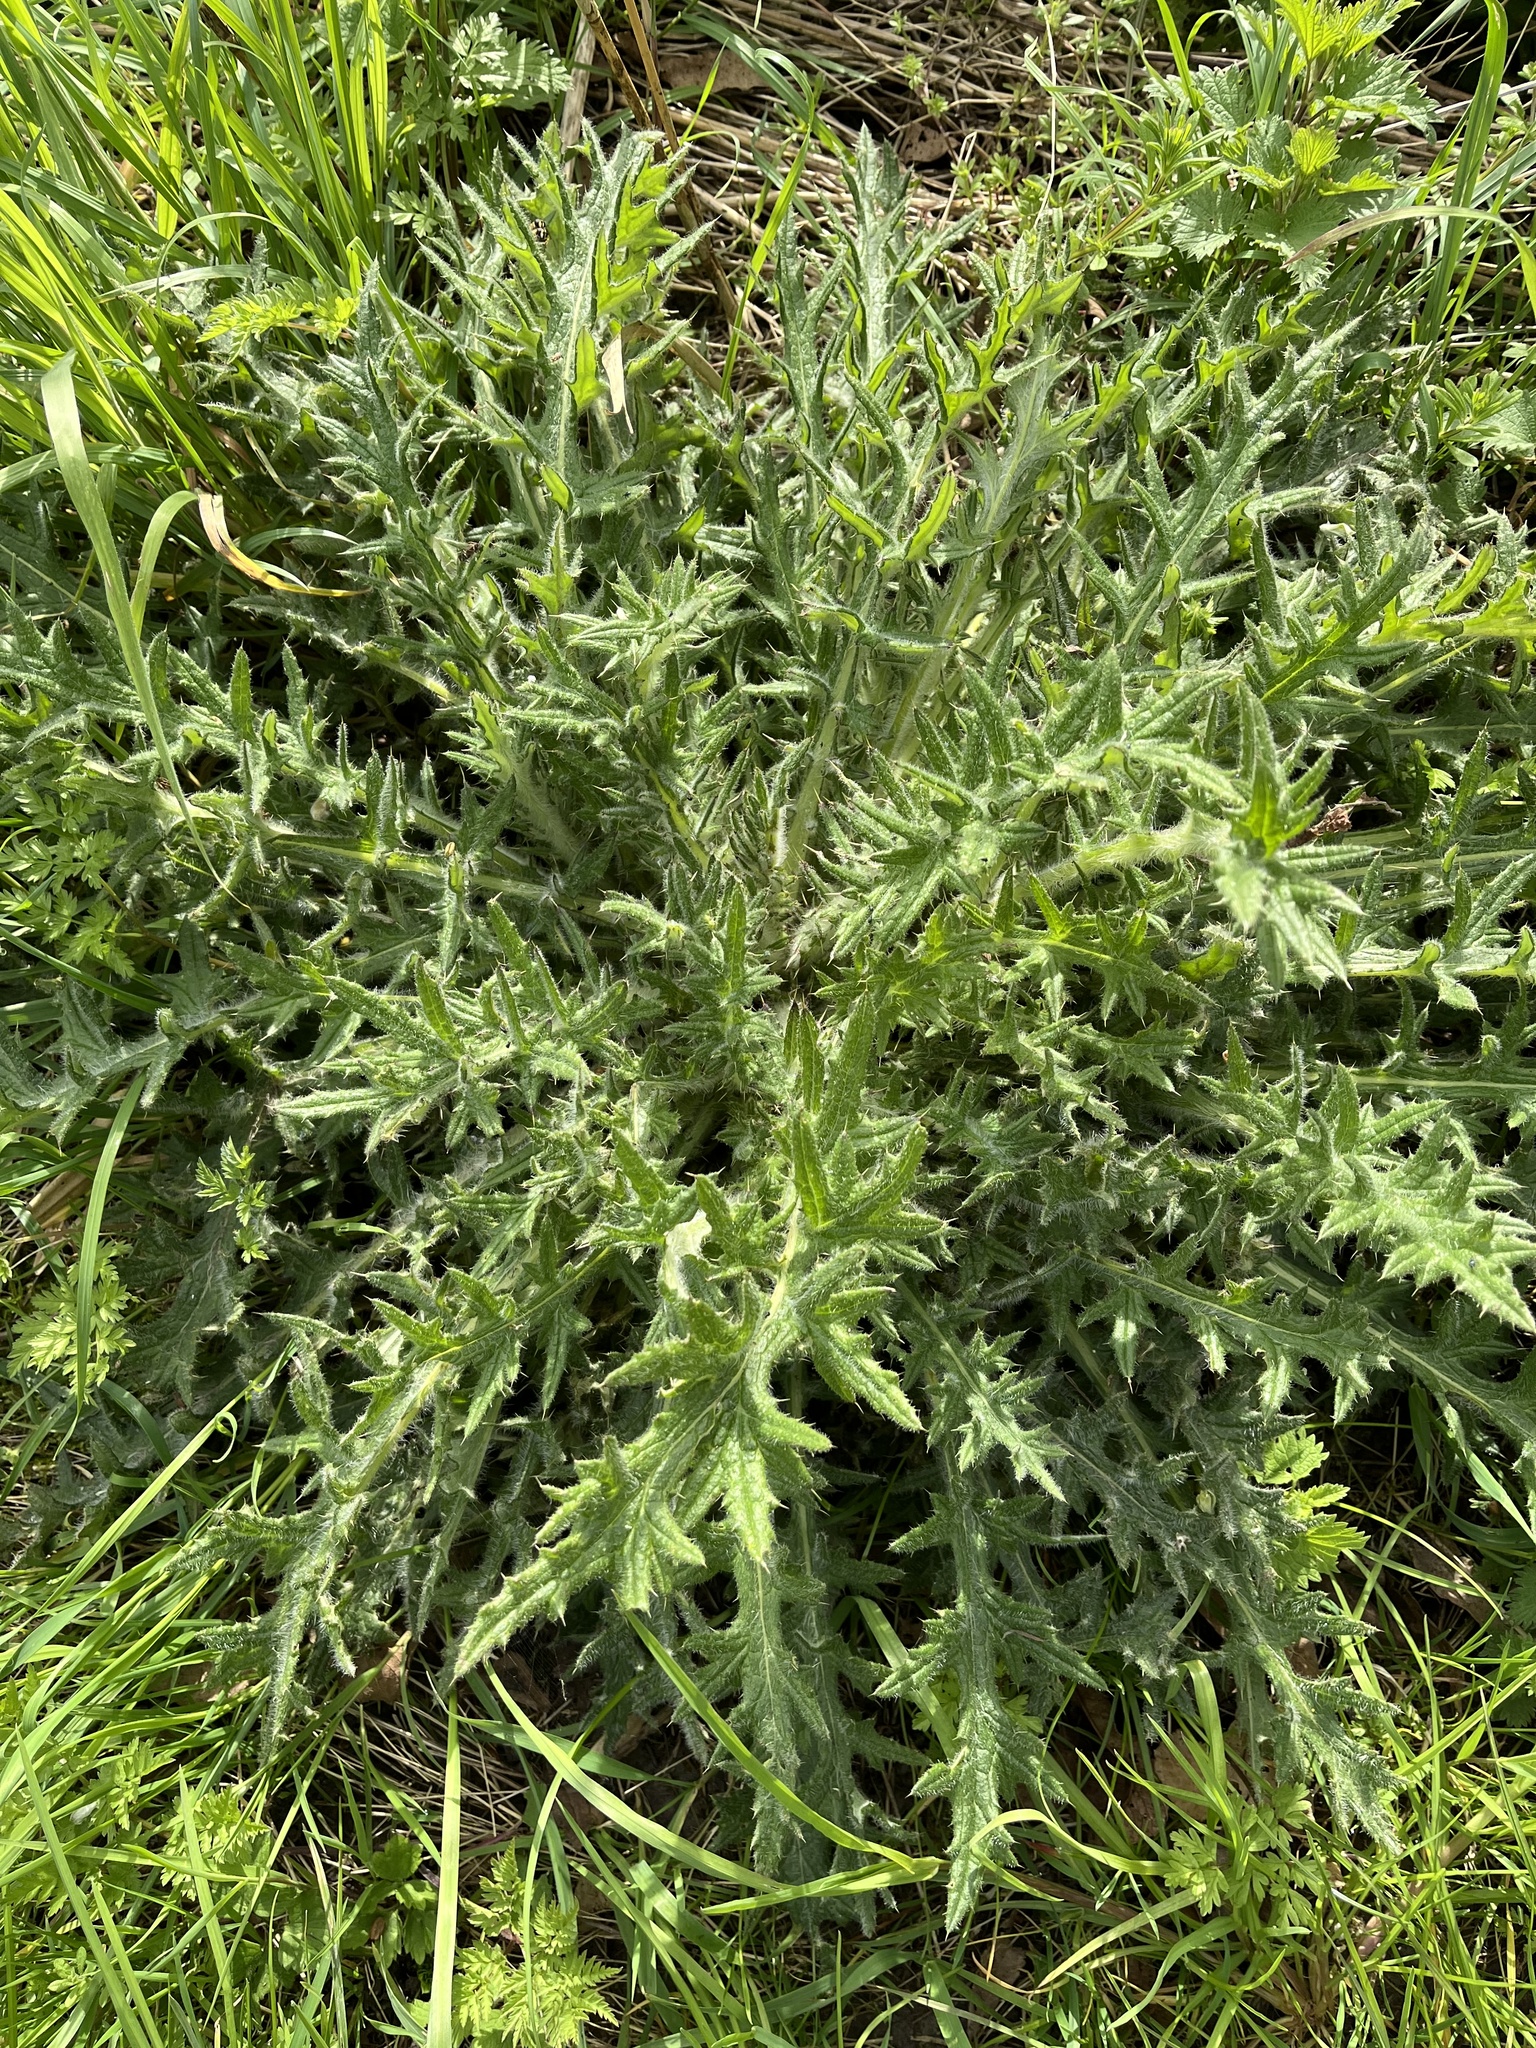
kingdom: Plantae
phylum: Tracheophyta
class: Magnoliopsida
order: Asterales
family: Asteraceae
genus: Cirsium
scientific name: Cirsium vulgare
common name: Bull thistle
